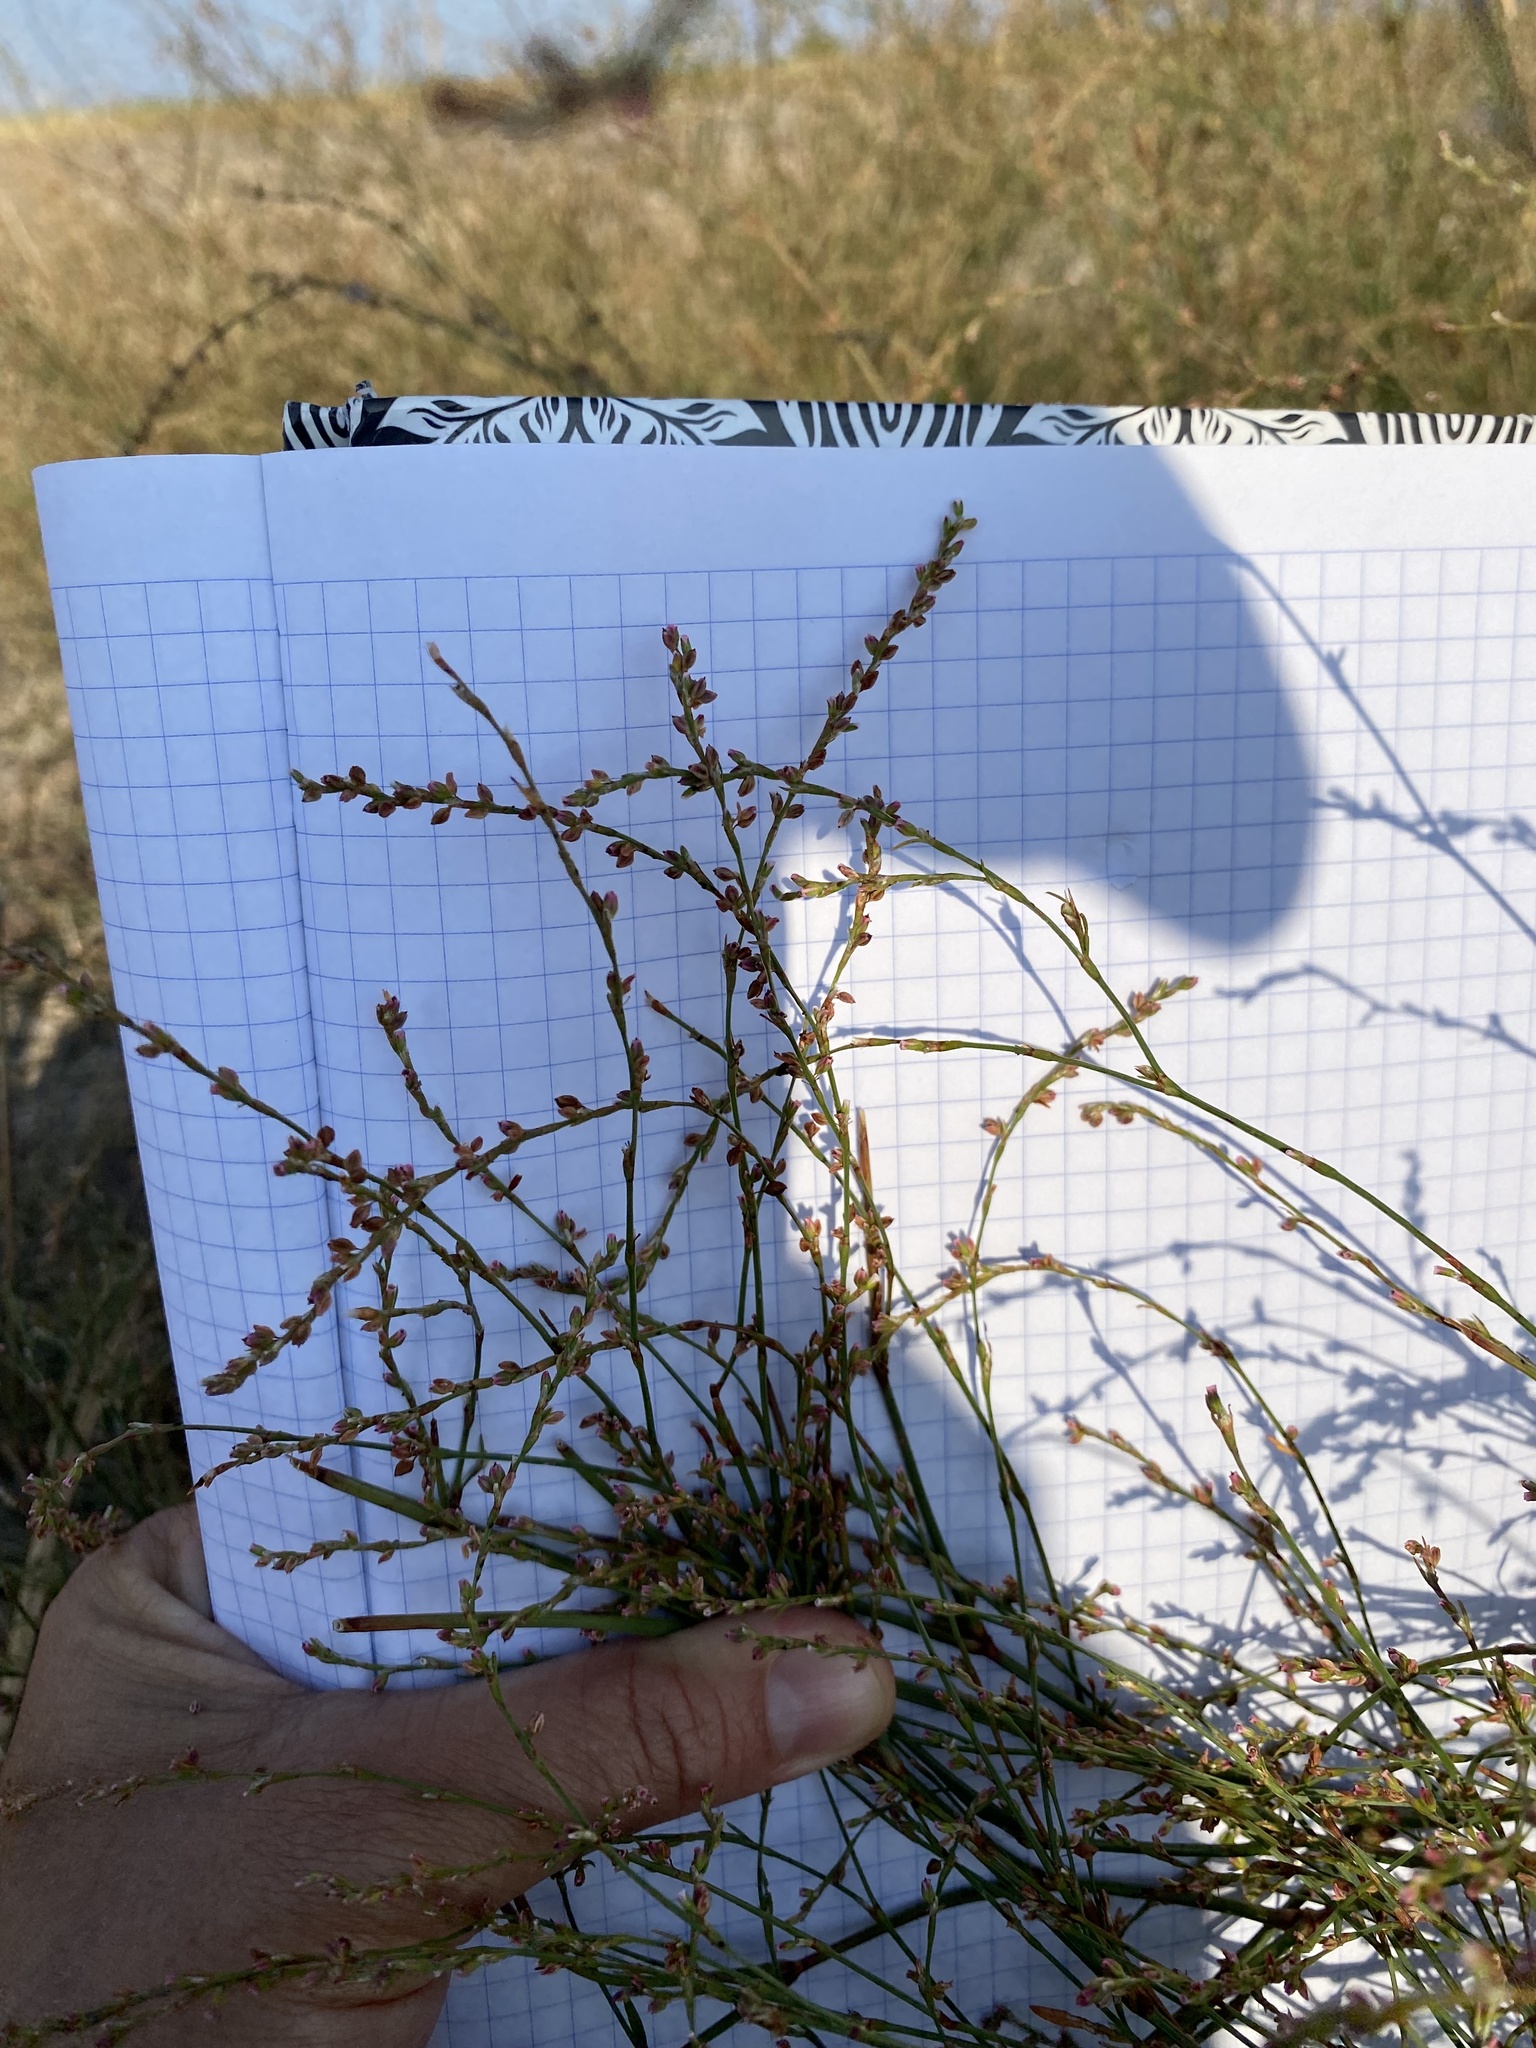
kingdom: Plantae
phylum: Tracheophyta
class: Magnoliopsida
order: Caryophyllales
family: Polygonaceae
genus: Polygonum
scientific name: Polygonum
